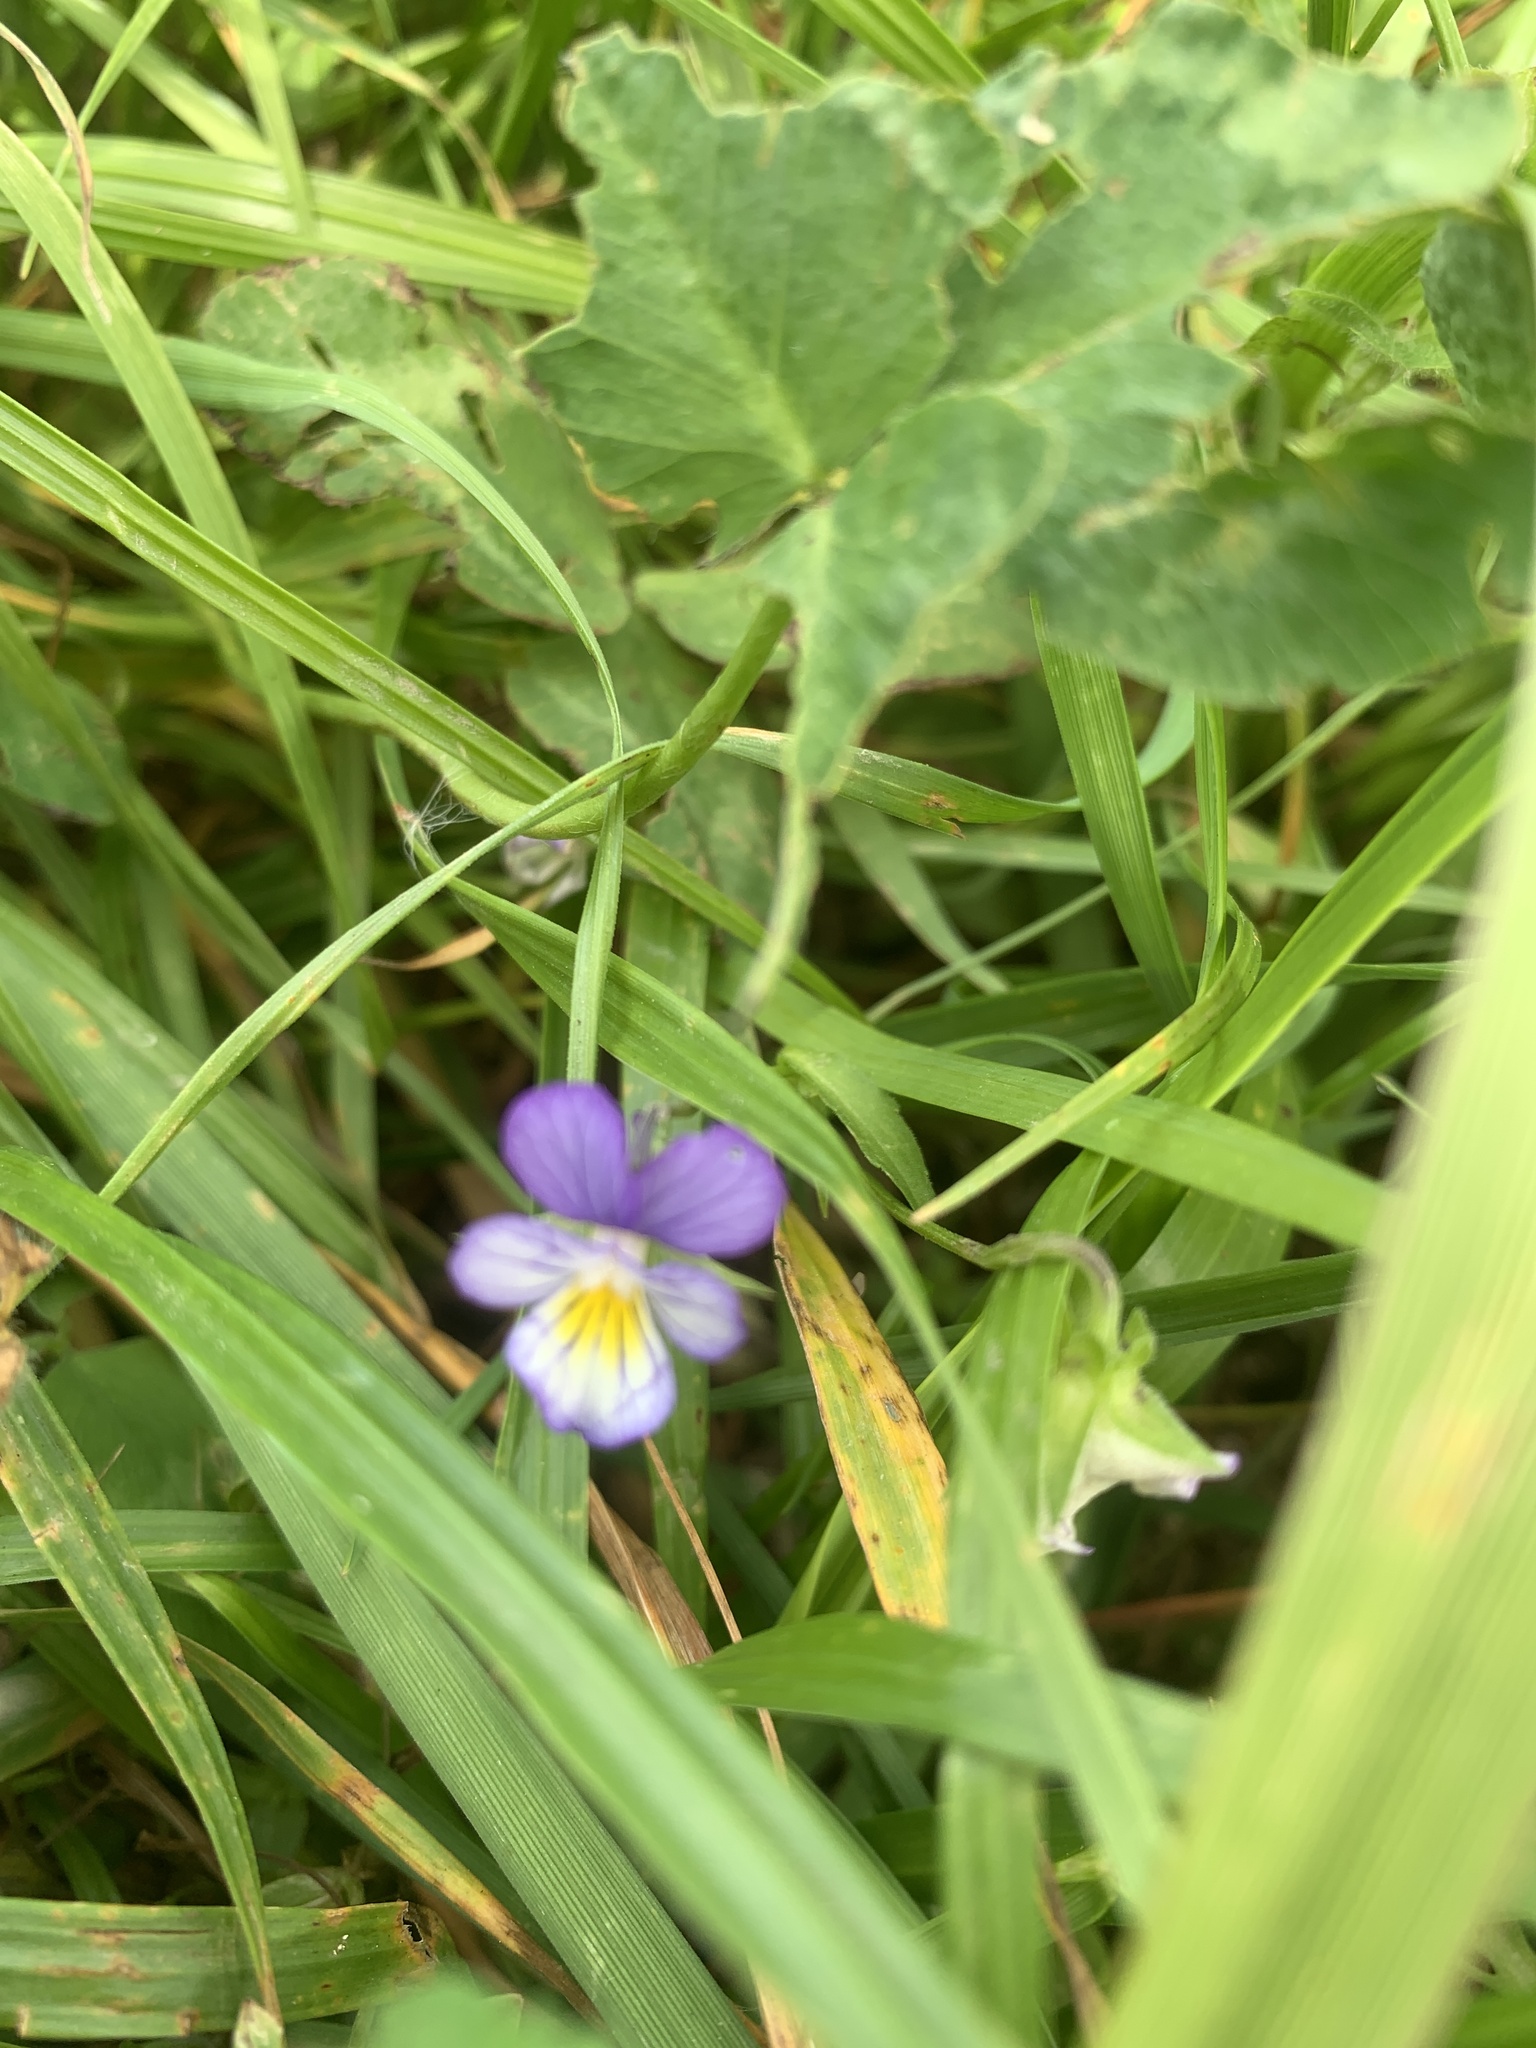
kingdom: Plantae
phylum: Tracheophyta
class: Magnoliopsida
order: Malpighiales
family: Violaceae
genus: Viola
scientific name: Viola tricolor
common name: Pansy
